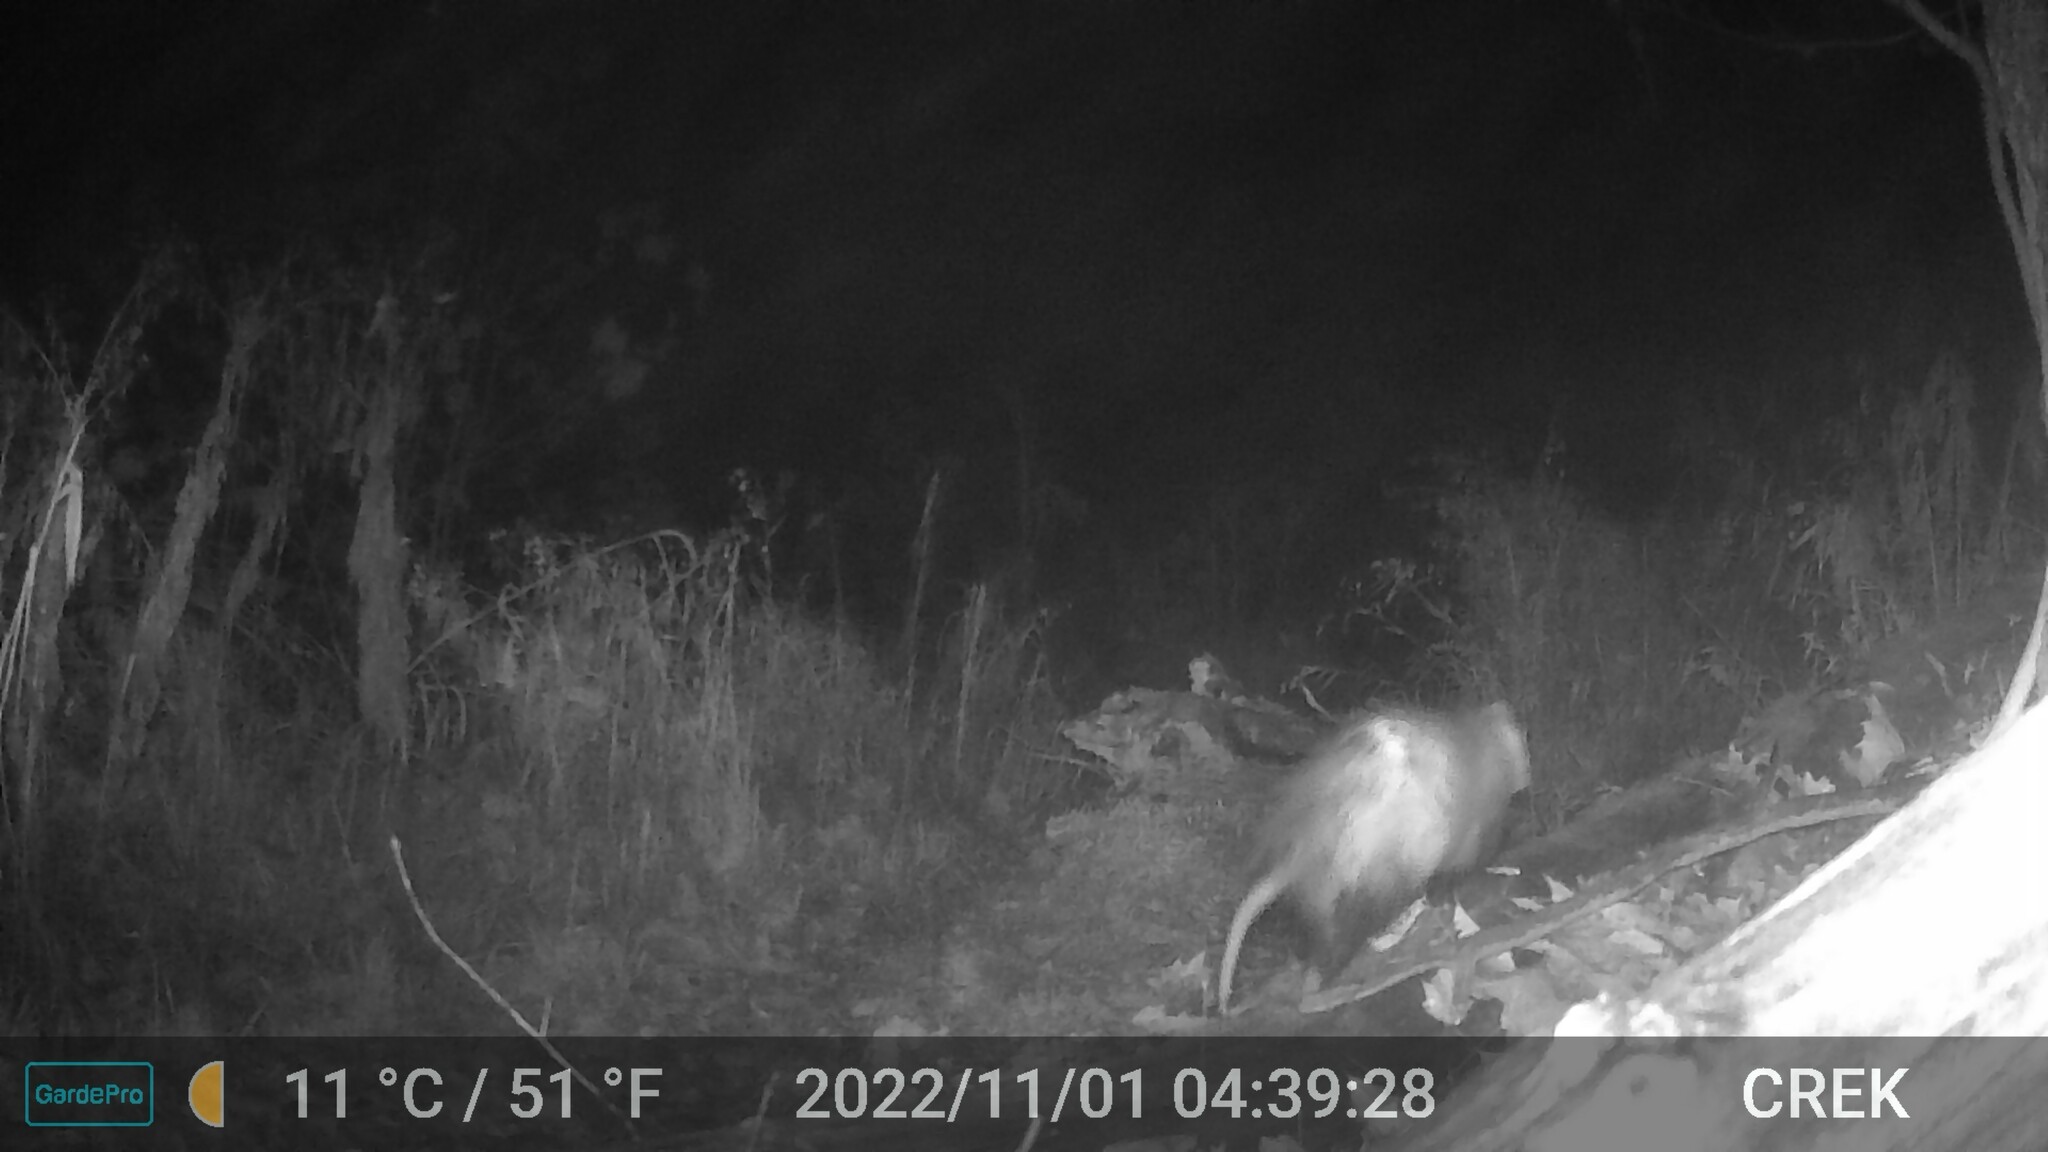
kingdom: Animalia
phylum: Chordata
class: Mammalia
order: Didelphimorphia
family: Didelphidae
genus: Didelphis
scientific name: Didelphis virginiana
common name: Virginia opossum
